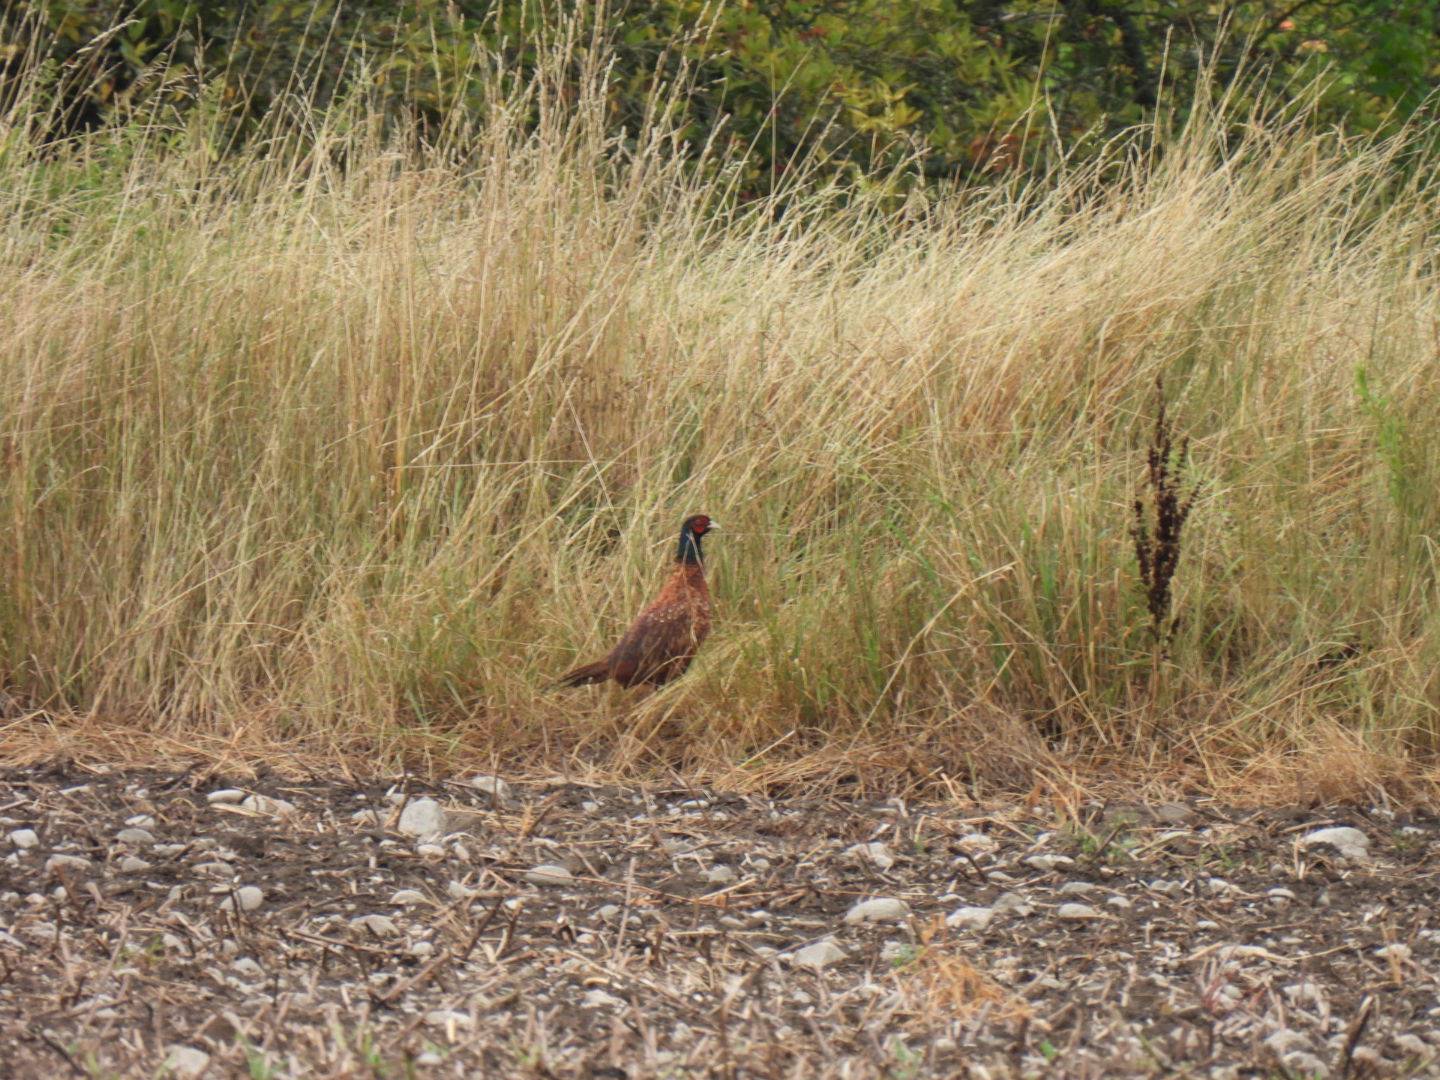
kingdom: Animalia
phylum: Chordata
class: Aves
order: Galliformes
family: Phasianidae
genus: Phasianus
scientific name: Phasianus colchicus
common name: Common pheasant
